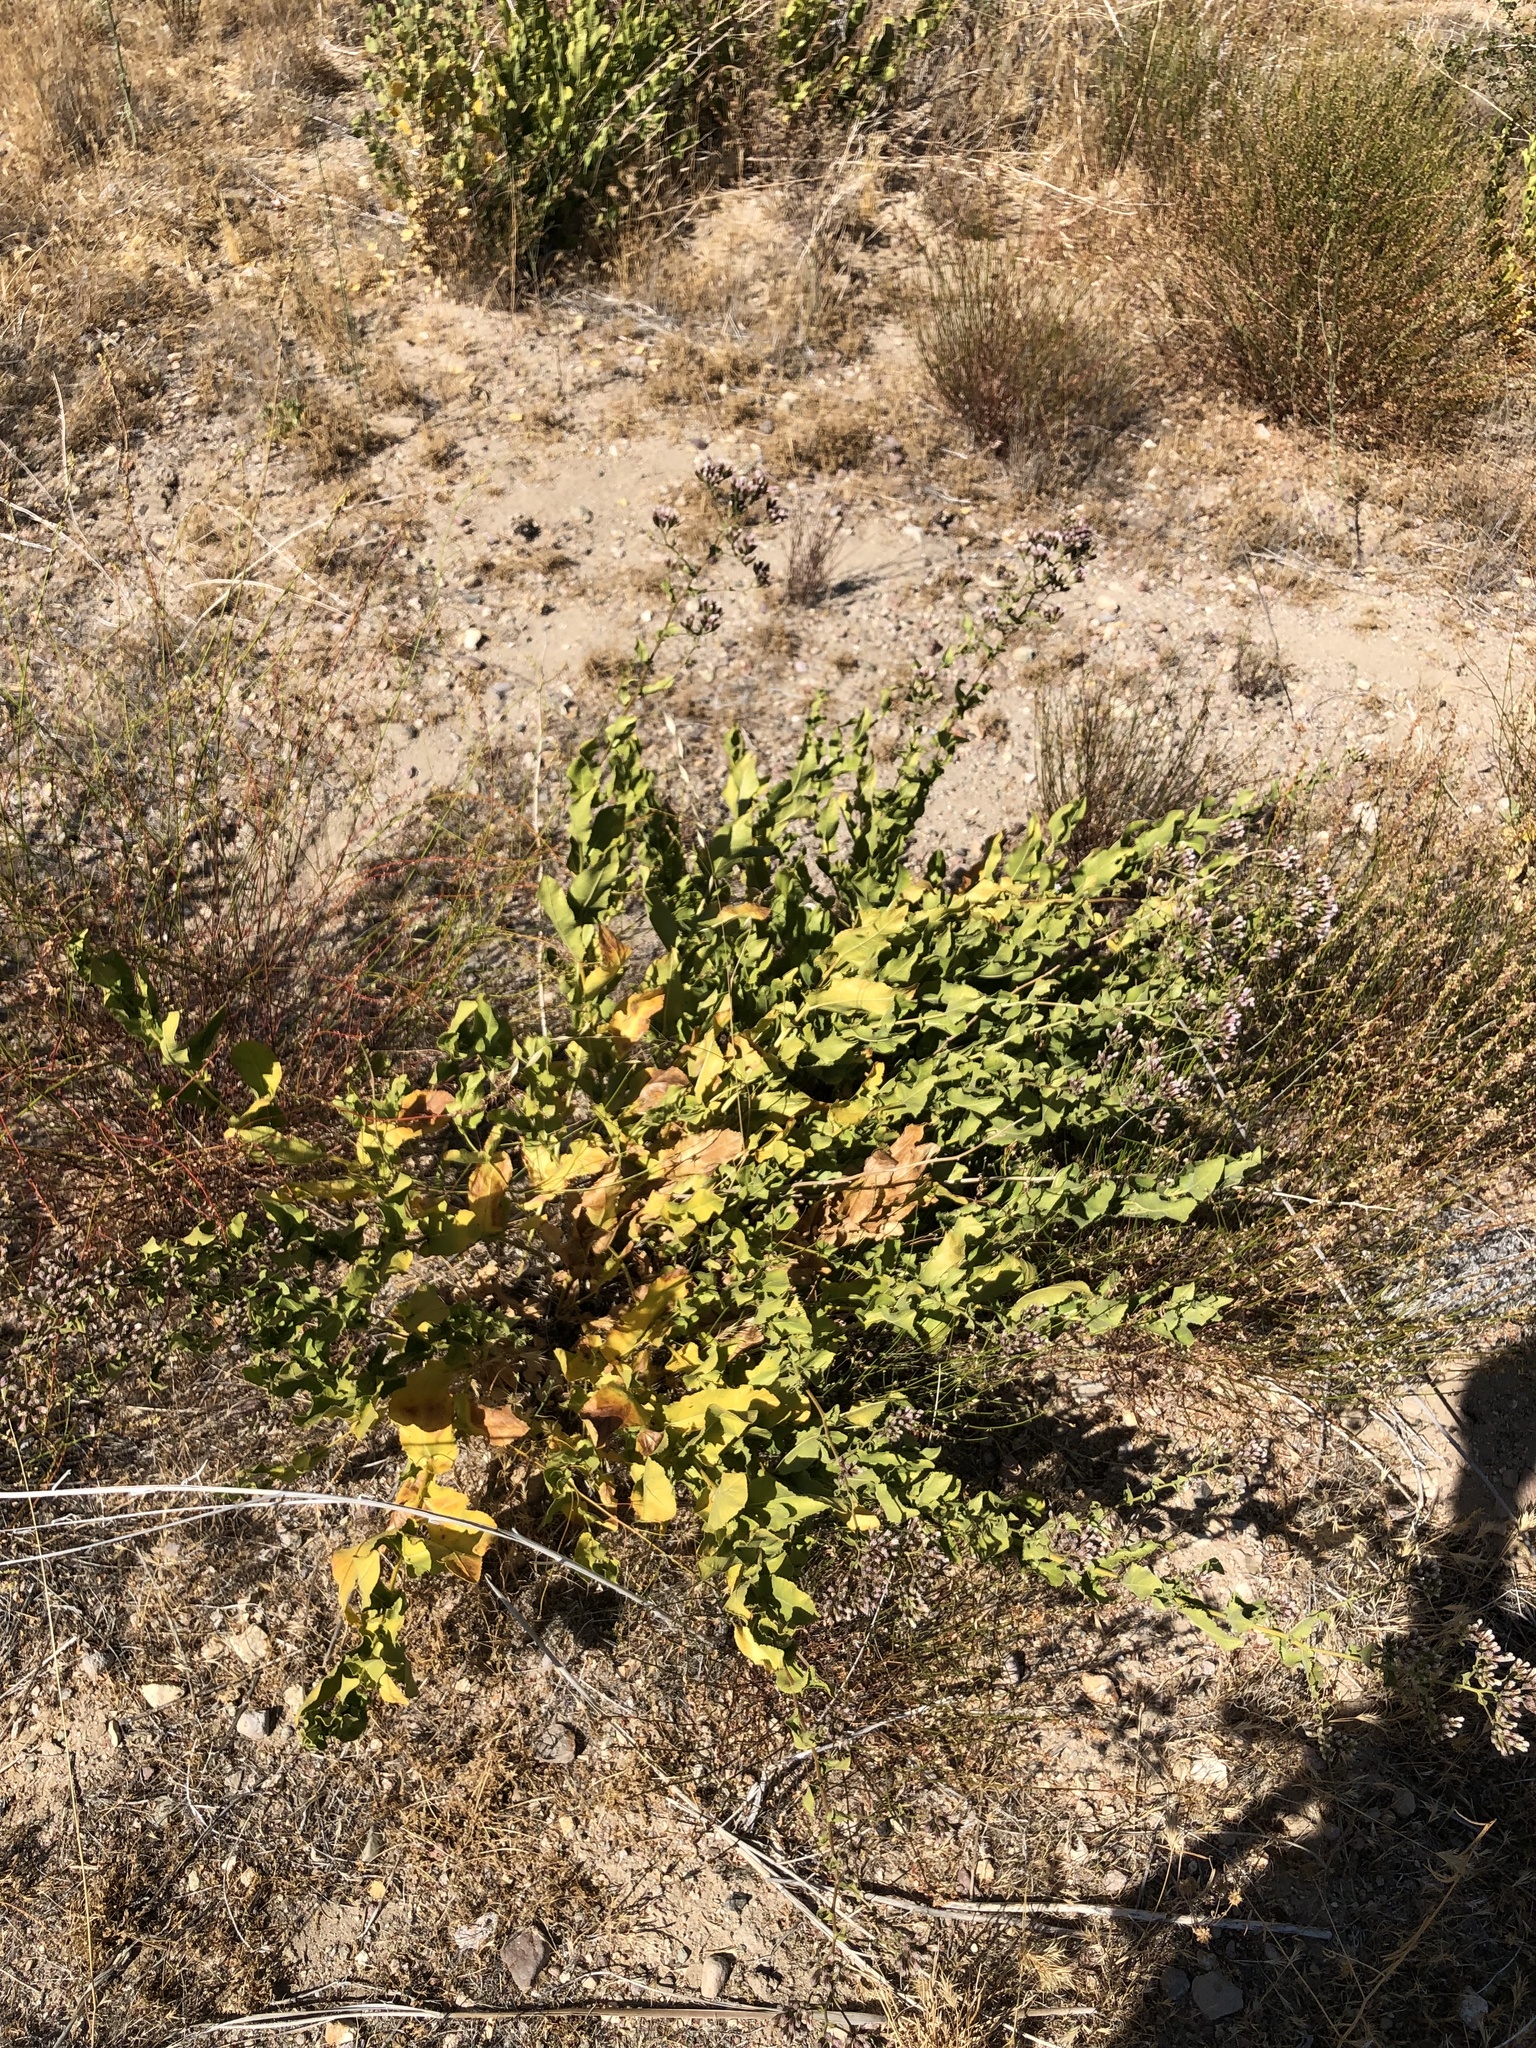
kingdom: Plantae
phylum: Tracheophyta
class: Magnoliopsida
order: Asterales
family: Asteraceae
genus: Acourtia
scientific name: Acourtia microcephala
